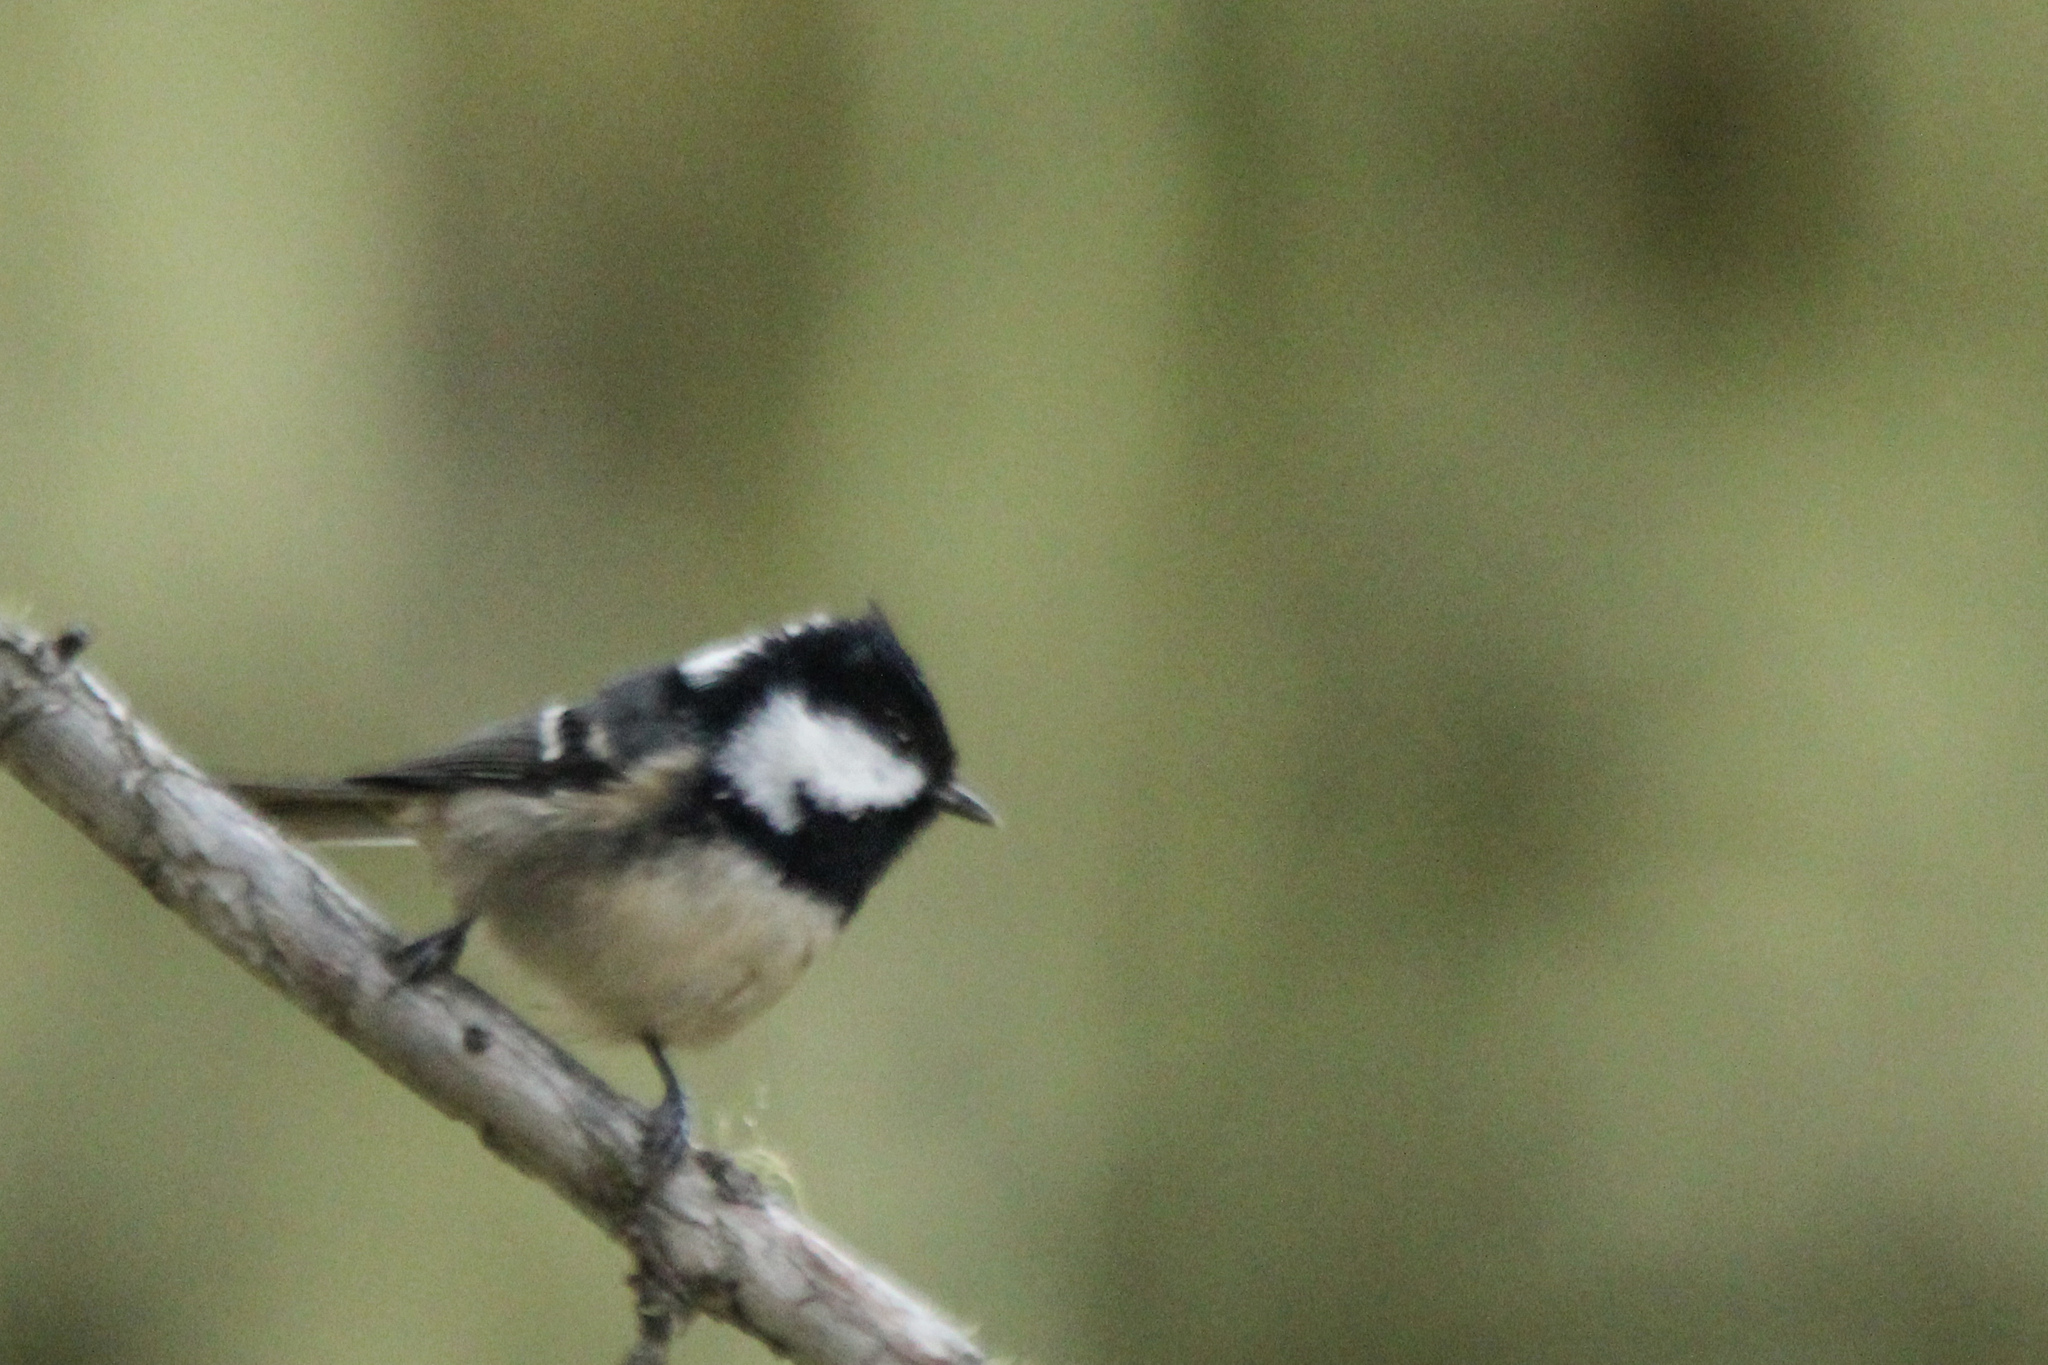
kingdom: Animalia
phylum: Chordata
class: Aves
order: Passeriformes
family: Paridae
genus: Periparus
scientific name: Periparus ater
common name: Coal tit
